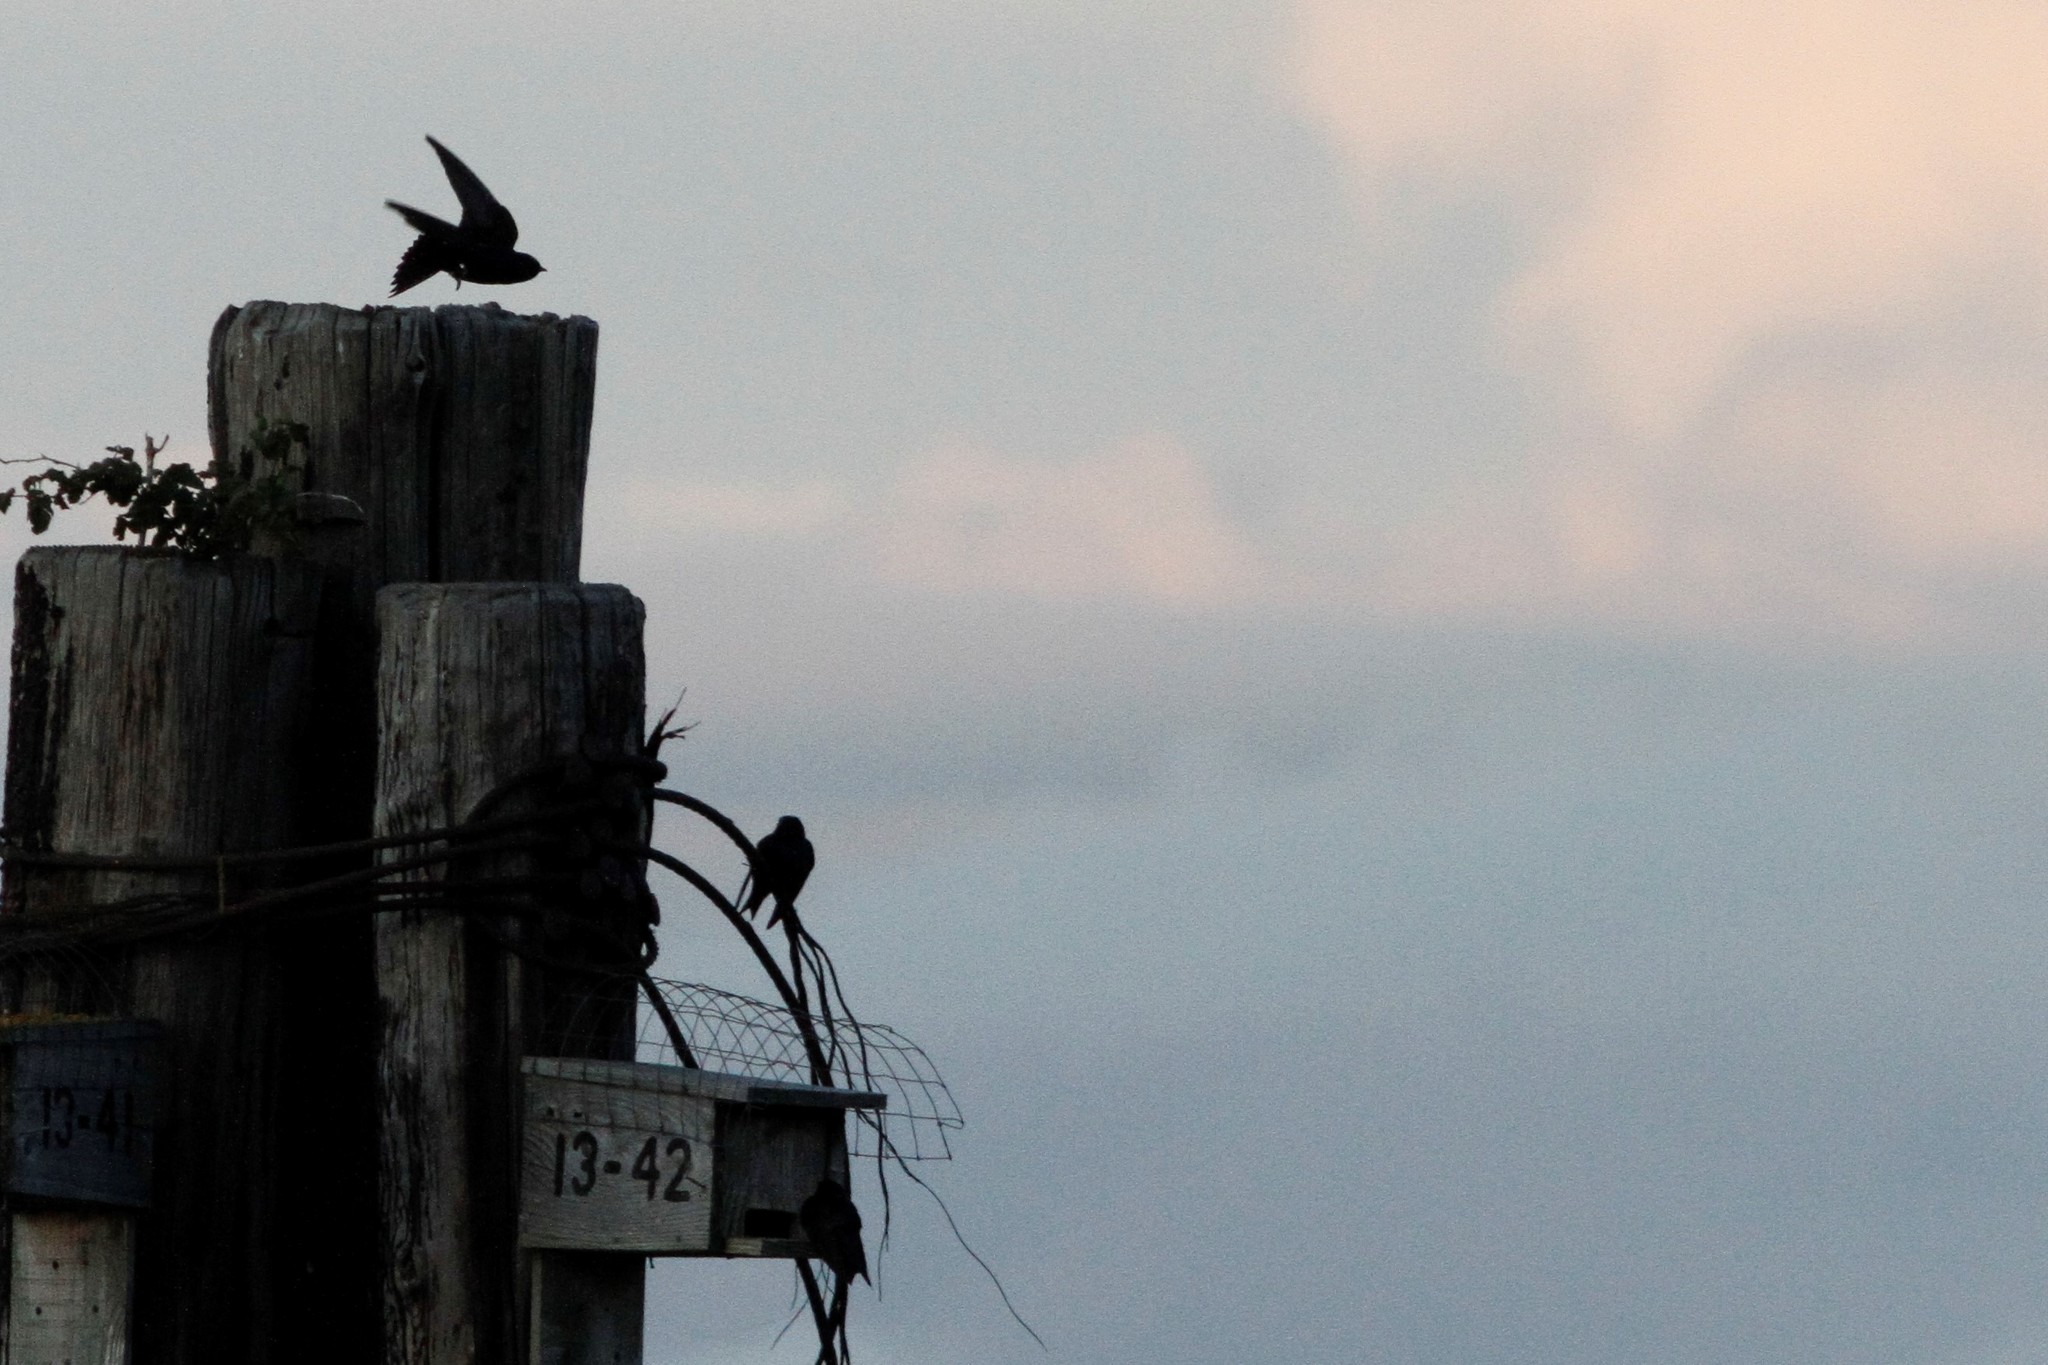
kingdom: Animalia
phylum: Chordata
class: Aves
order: Passeriformes
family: Hirundinidae
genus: Progne
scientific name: Progne subis
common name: Purple martin
